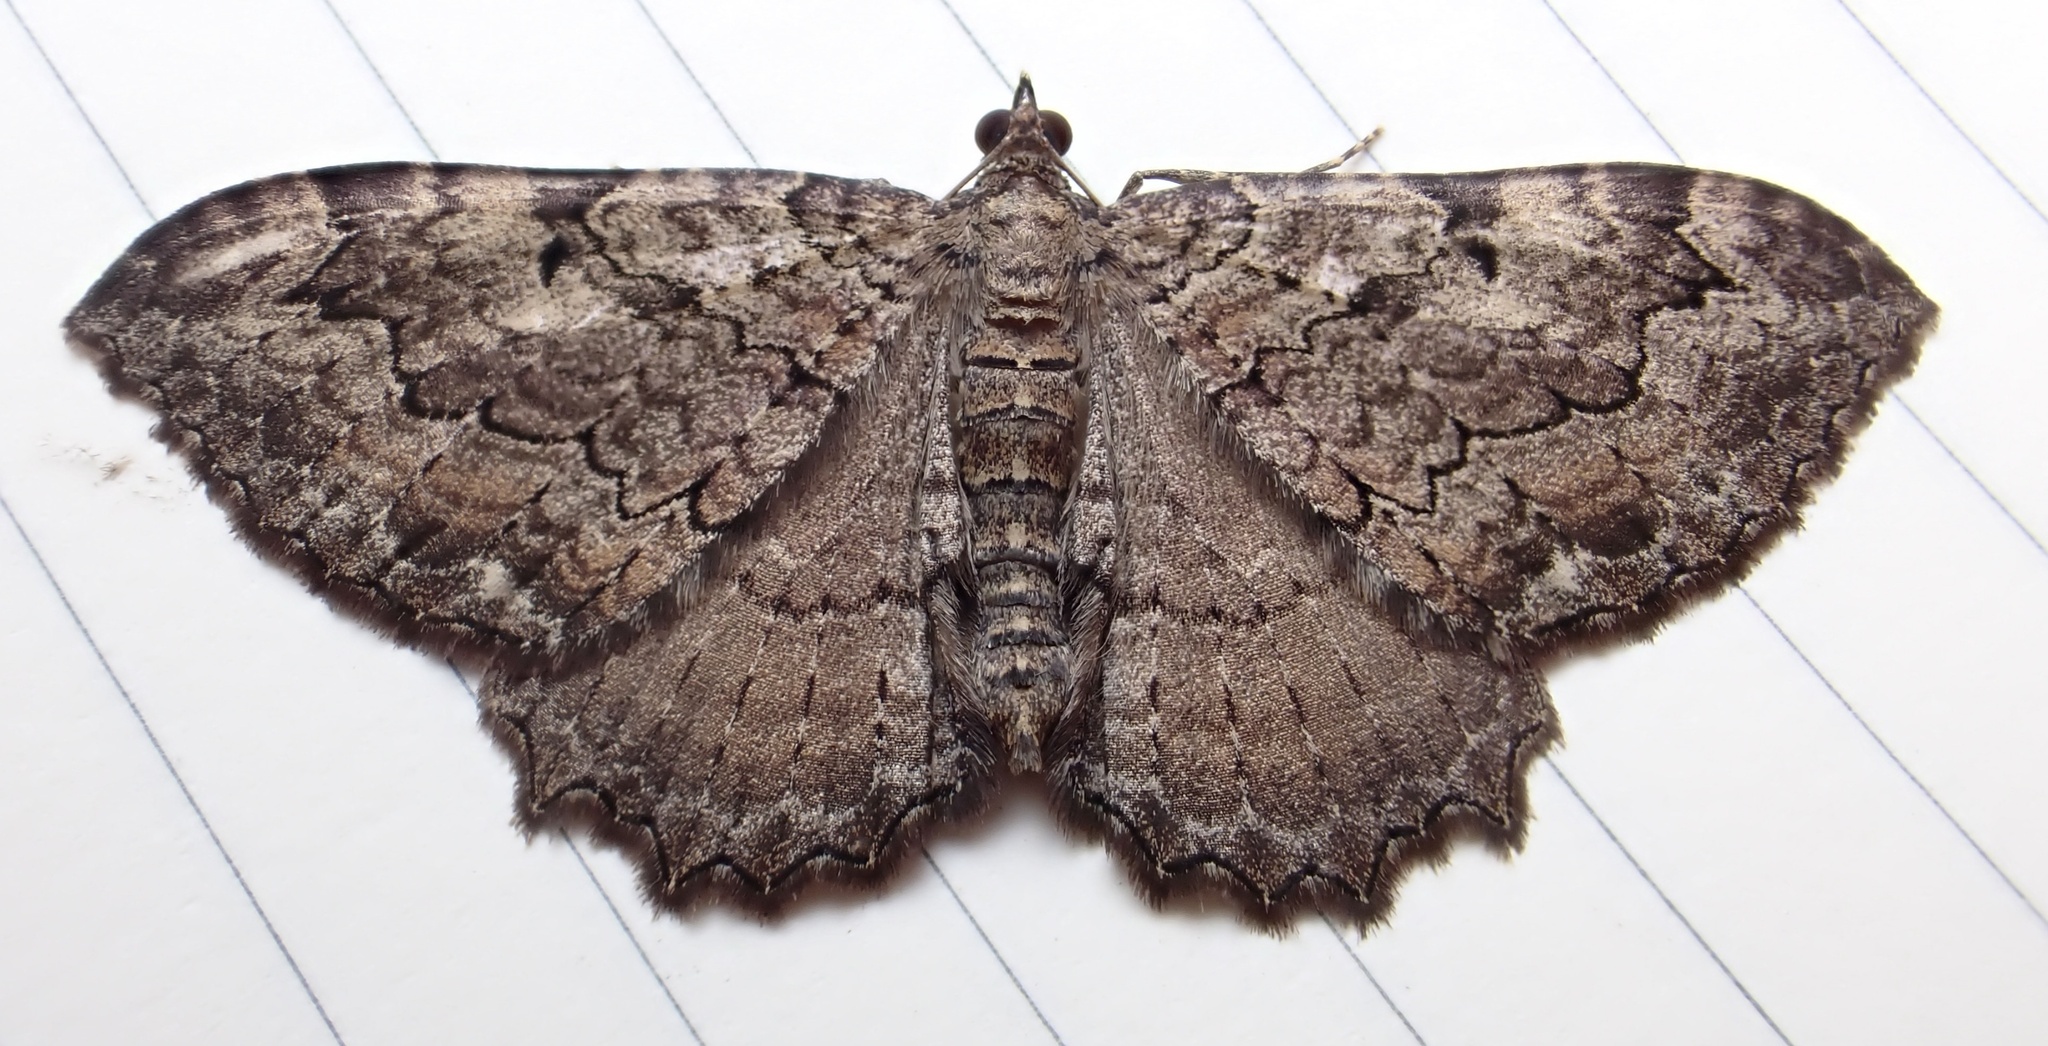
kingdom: Animalia
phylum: Arthropoda
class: Insecta
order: Lepidoptera
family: Geometridae
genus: Rheumaptera
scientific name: Rheumaptera
